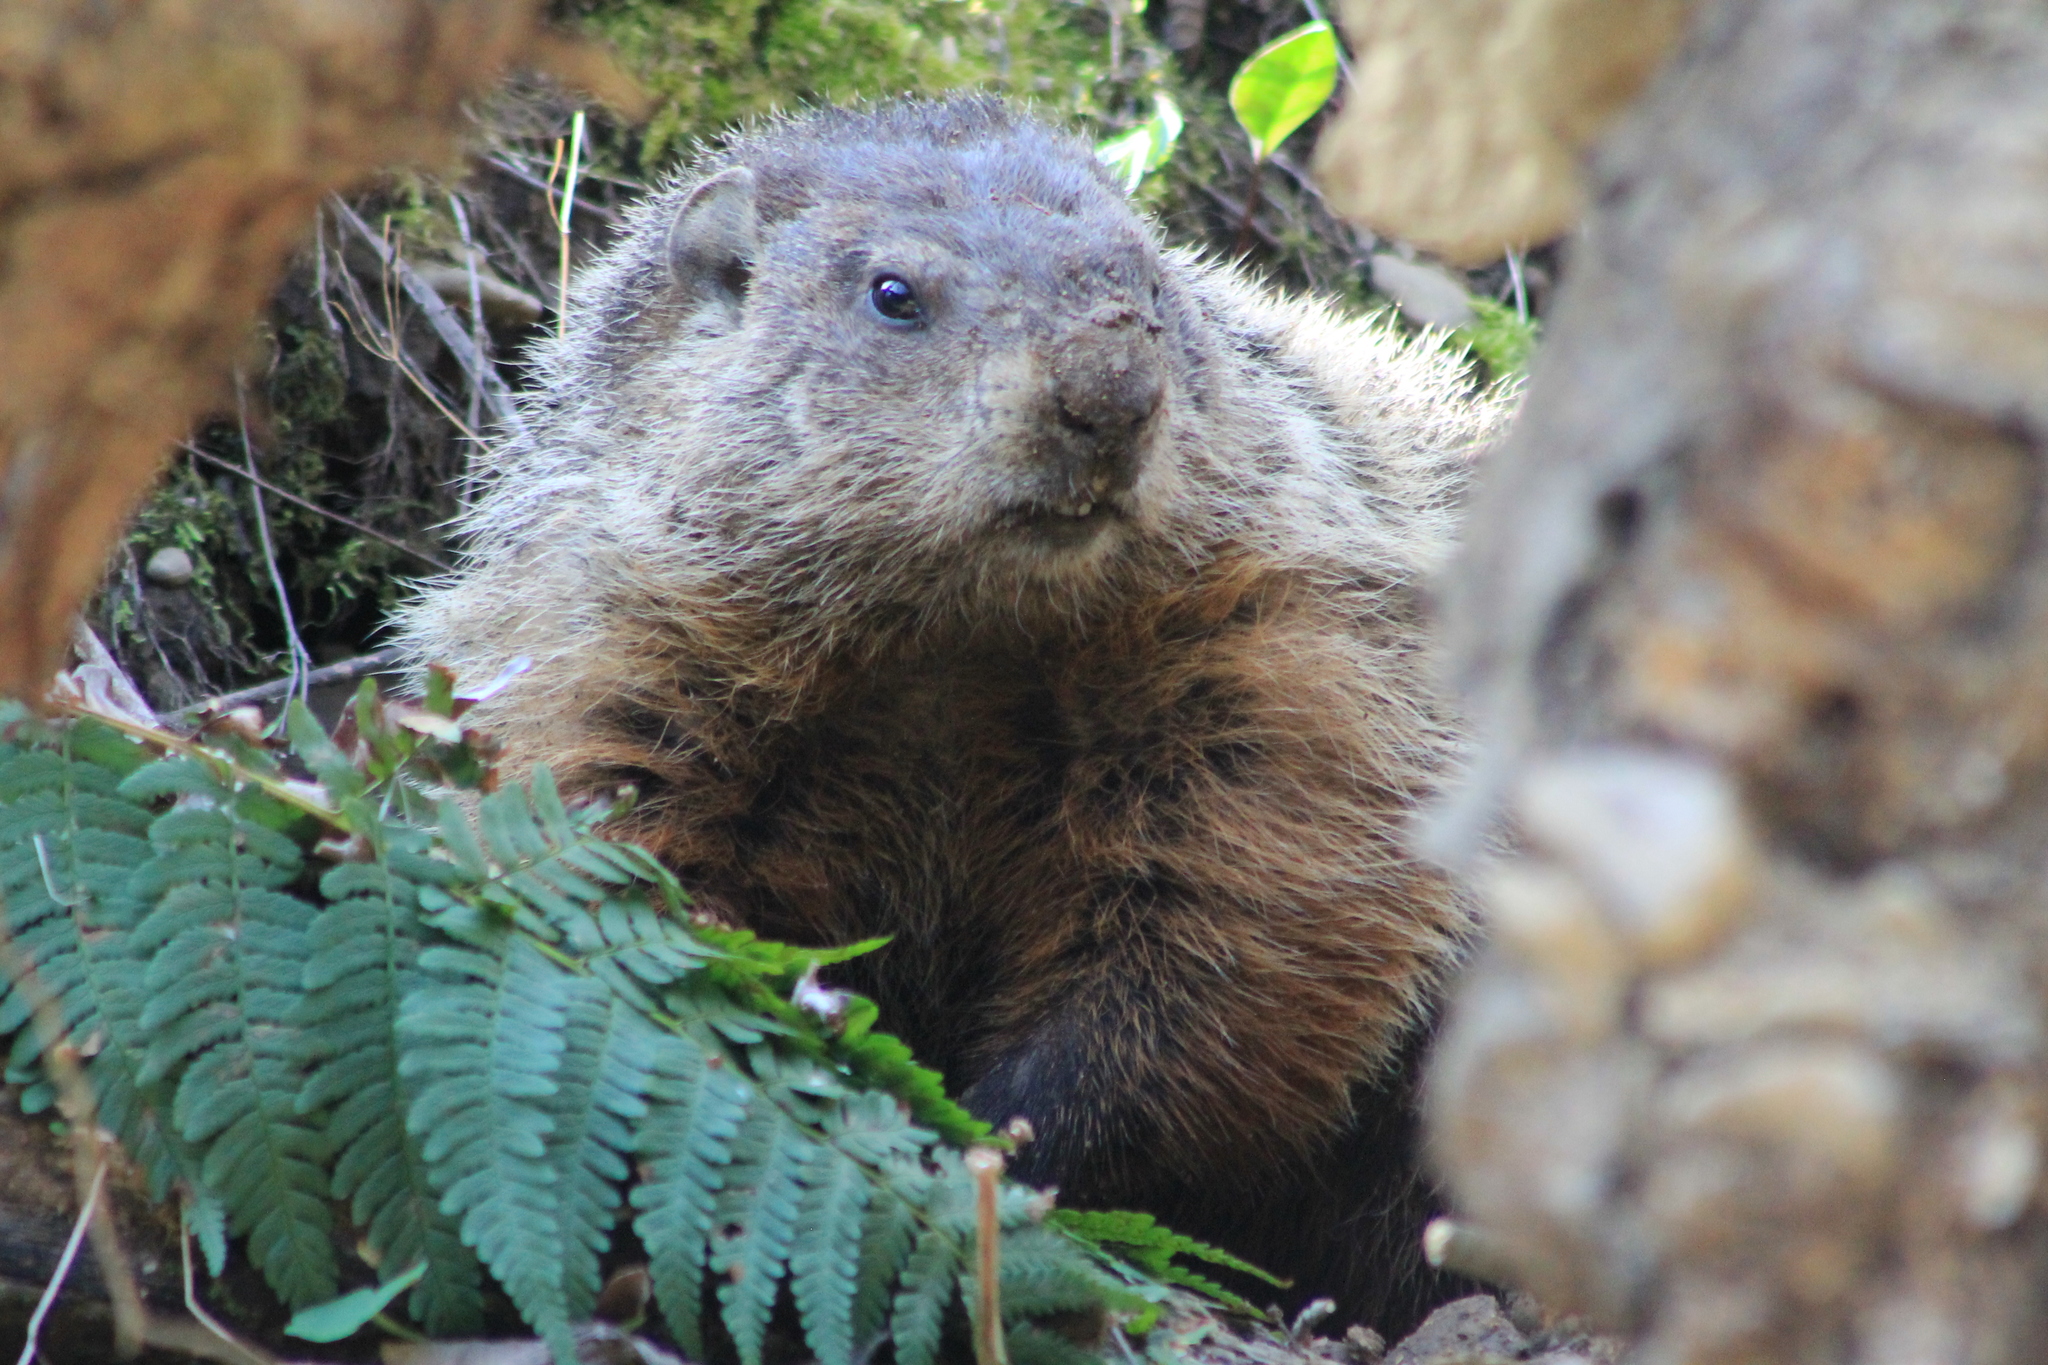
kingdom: Animalia
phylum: Chordata
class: Mammalia
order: Rodentia
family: Sciuridae
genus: Marmota
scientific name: Marmota monax
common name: Groundhog
